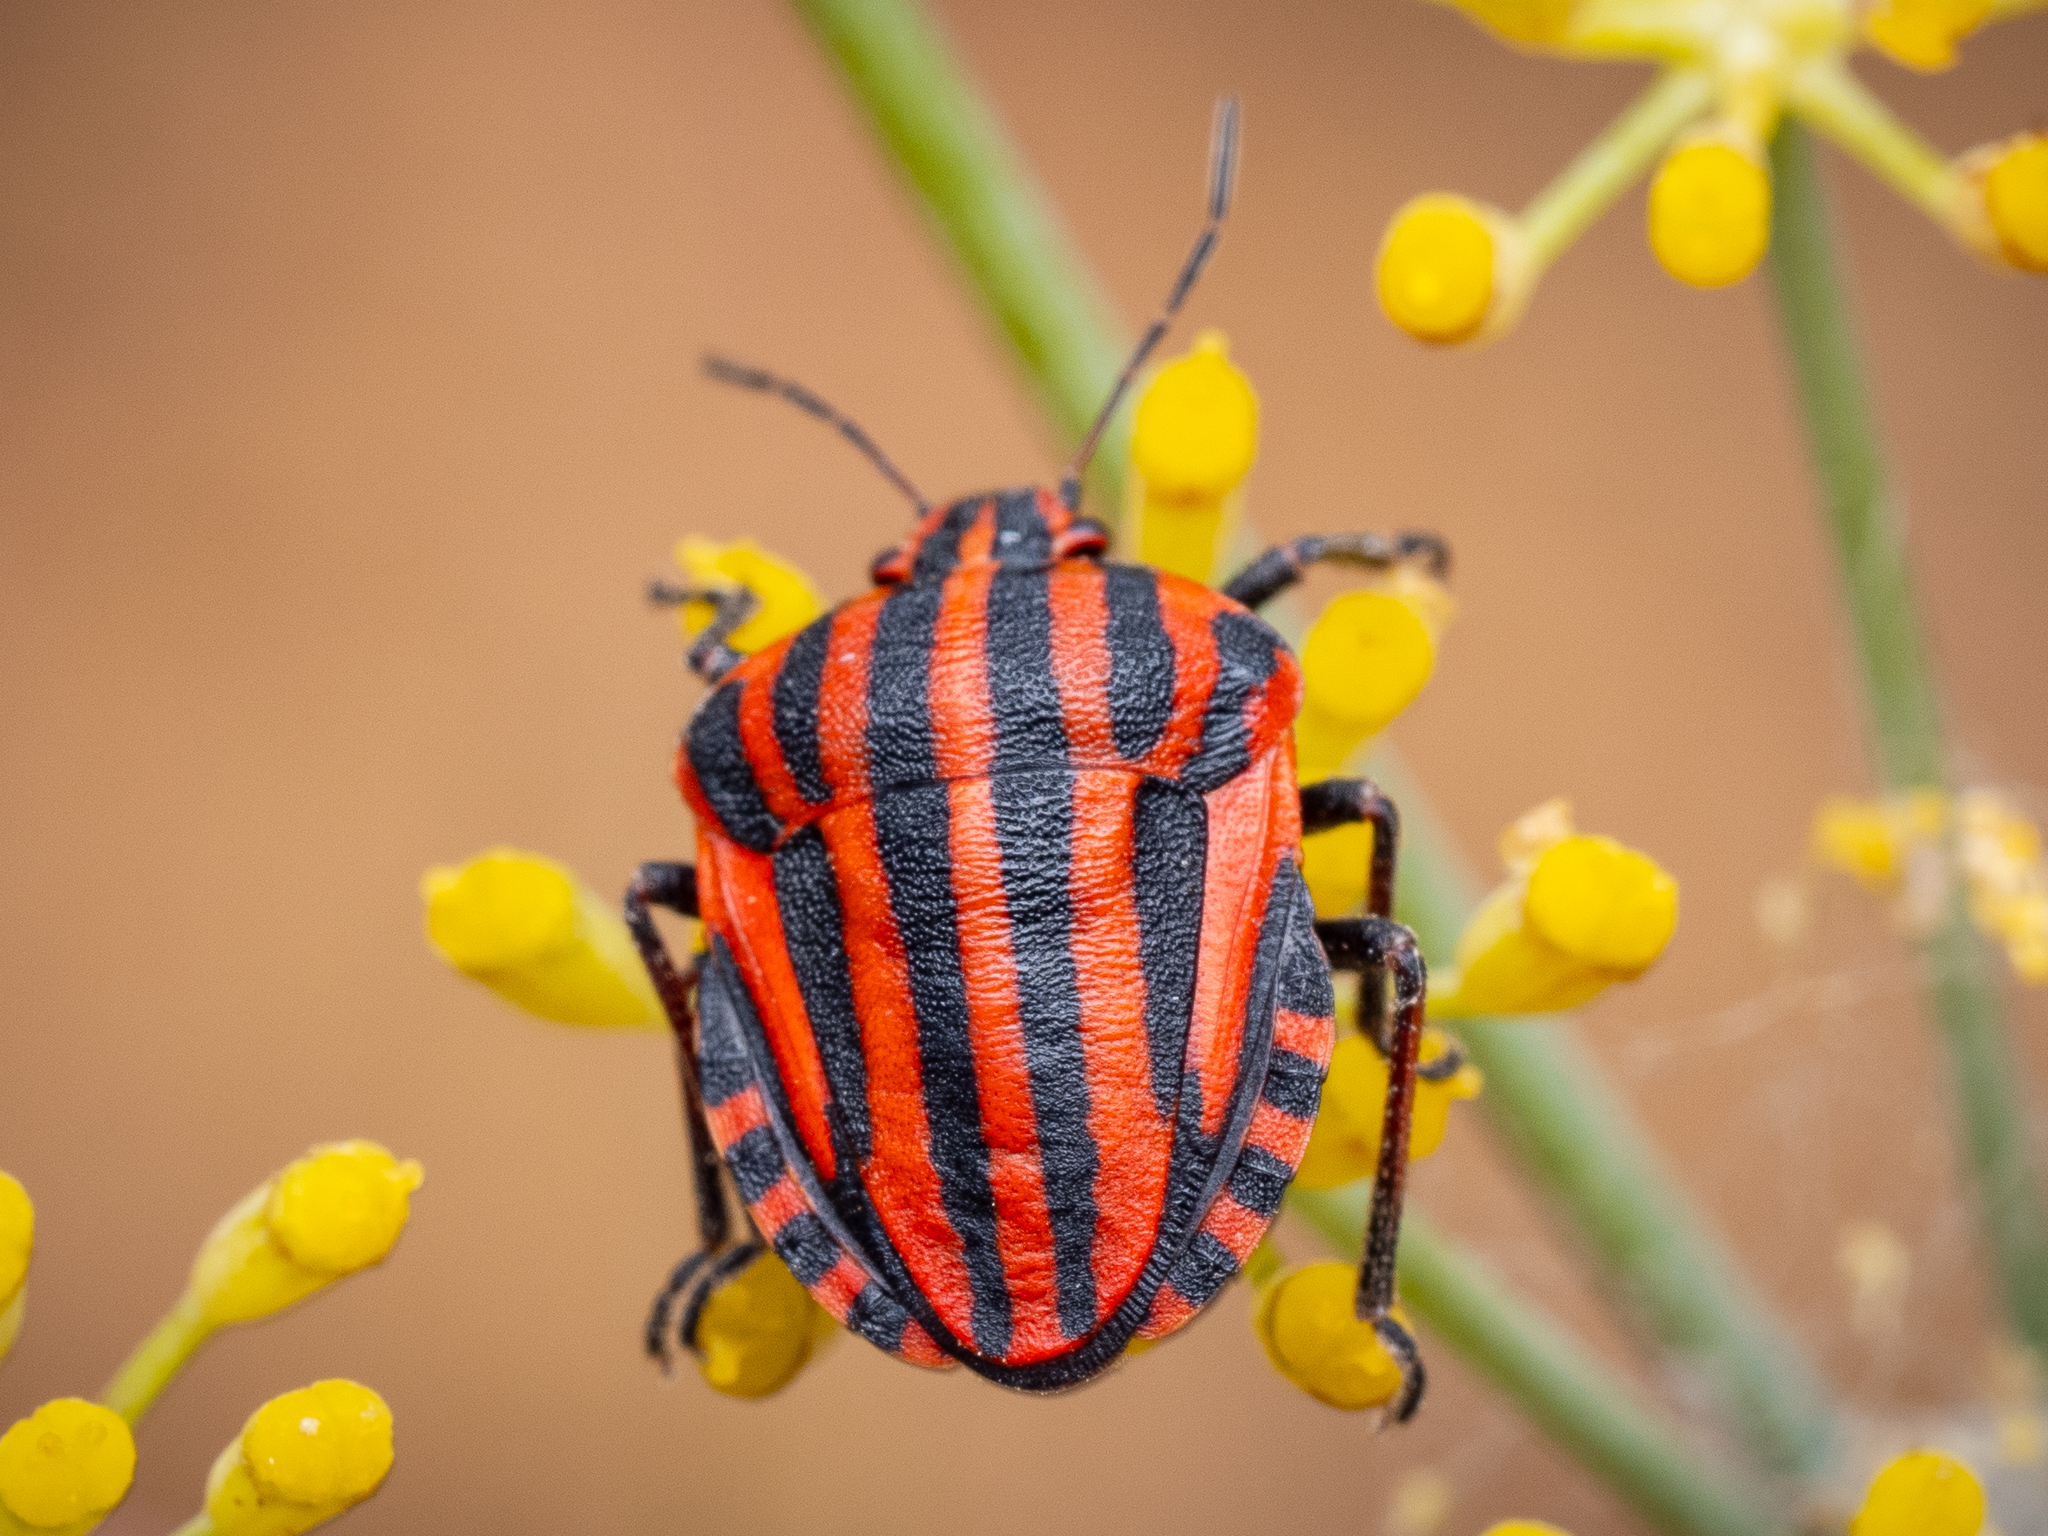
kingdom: Animalia
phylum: Arthropoda
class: Insecta
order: Hemiptera
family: Pentatomidae
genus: Graphosoma
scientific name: Graphosoma italicum
